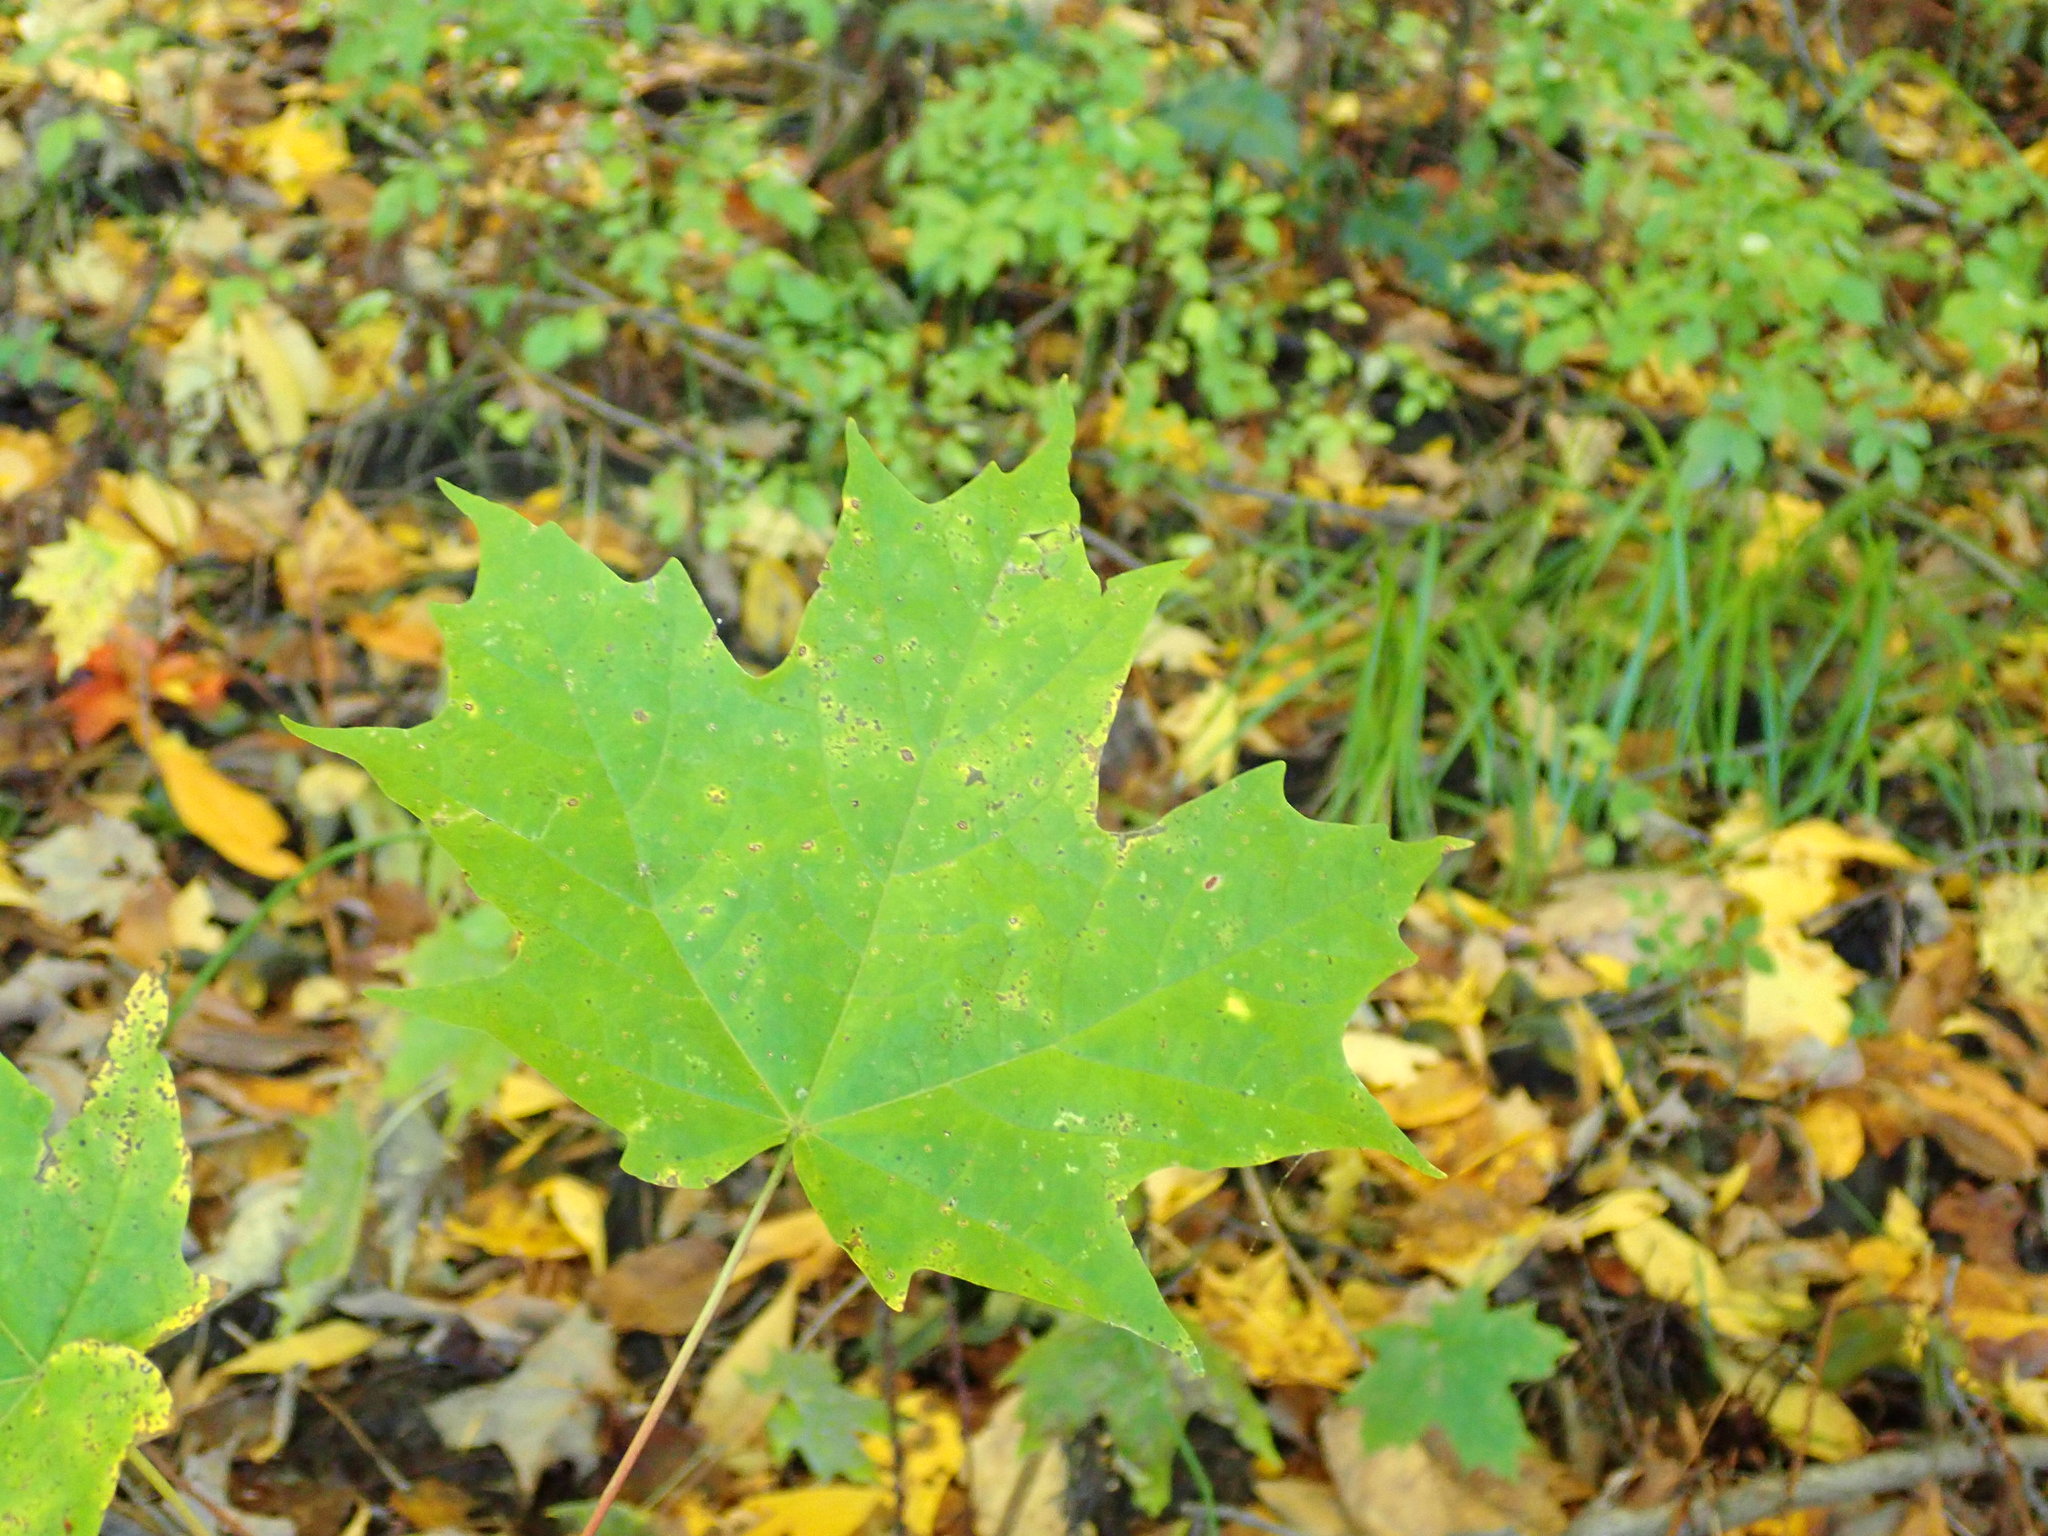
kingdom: Plantae
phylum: Tracheophyta
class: Magnoliopsida
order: Sapindales
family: Sapindaceae
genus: Acer
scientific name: Acer saccharum
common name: Sugar maple
